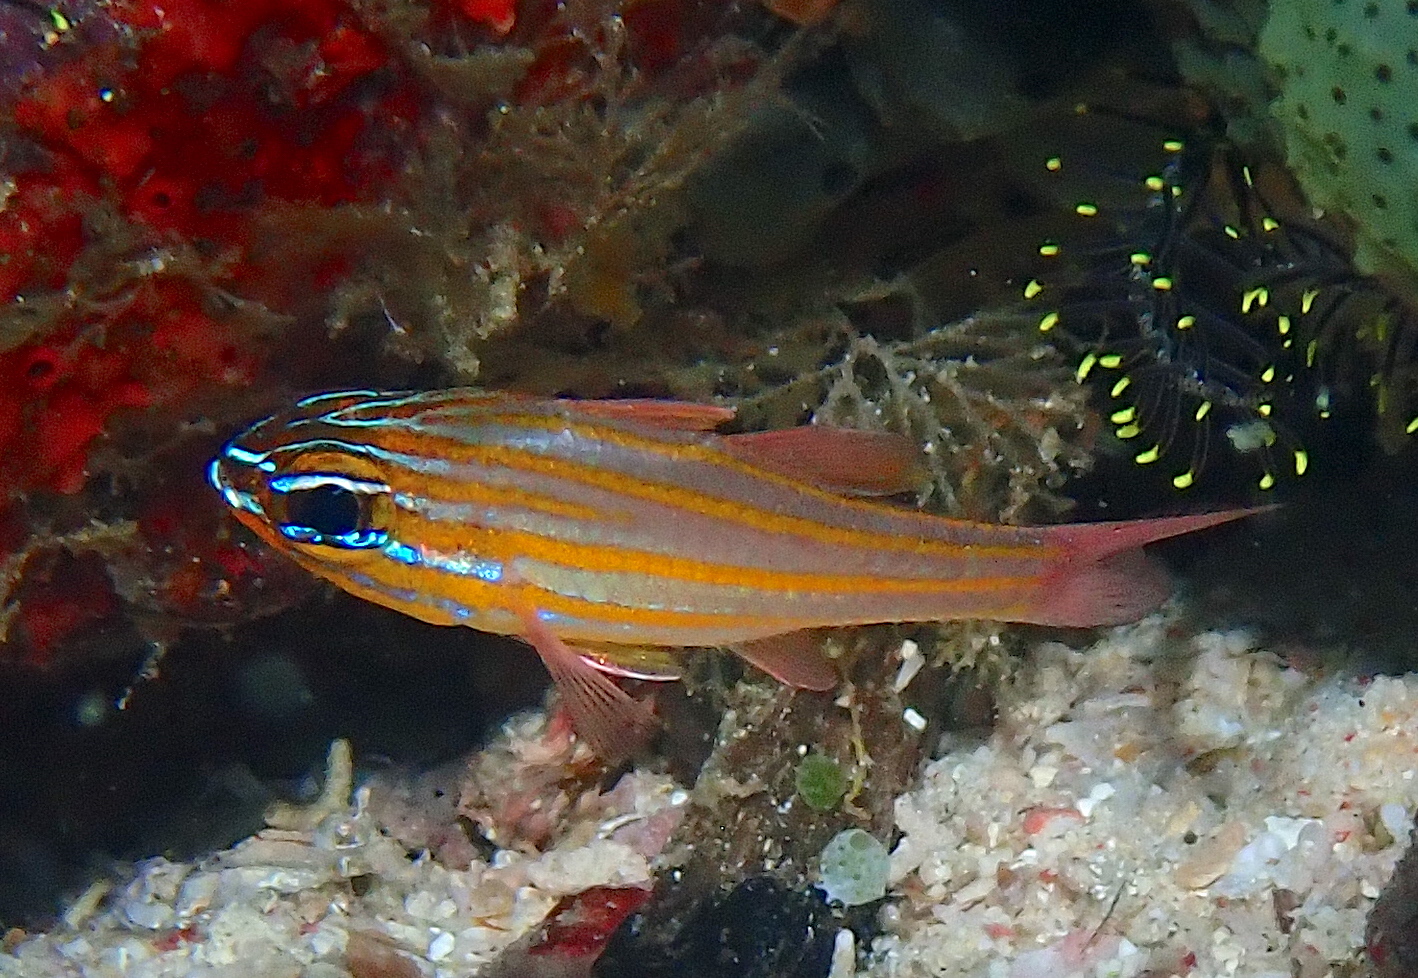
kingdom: Animalia
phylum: Chordata
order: Perciformes
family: Apogonidae
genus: Ostorhinchus
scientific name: Ostorhinchus cyanosoma
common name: Yellow-striped cardinalfish
